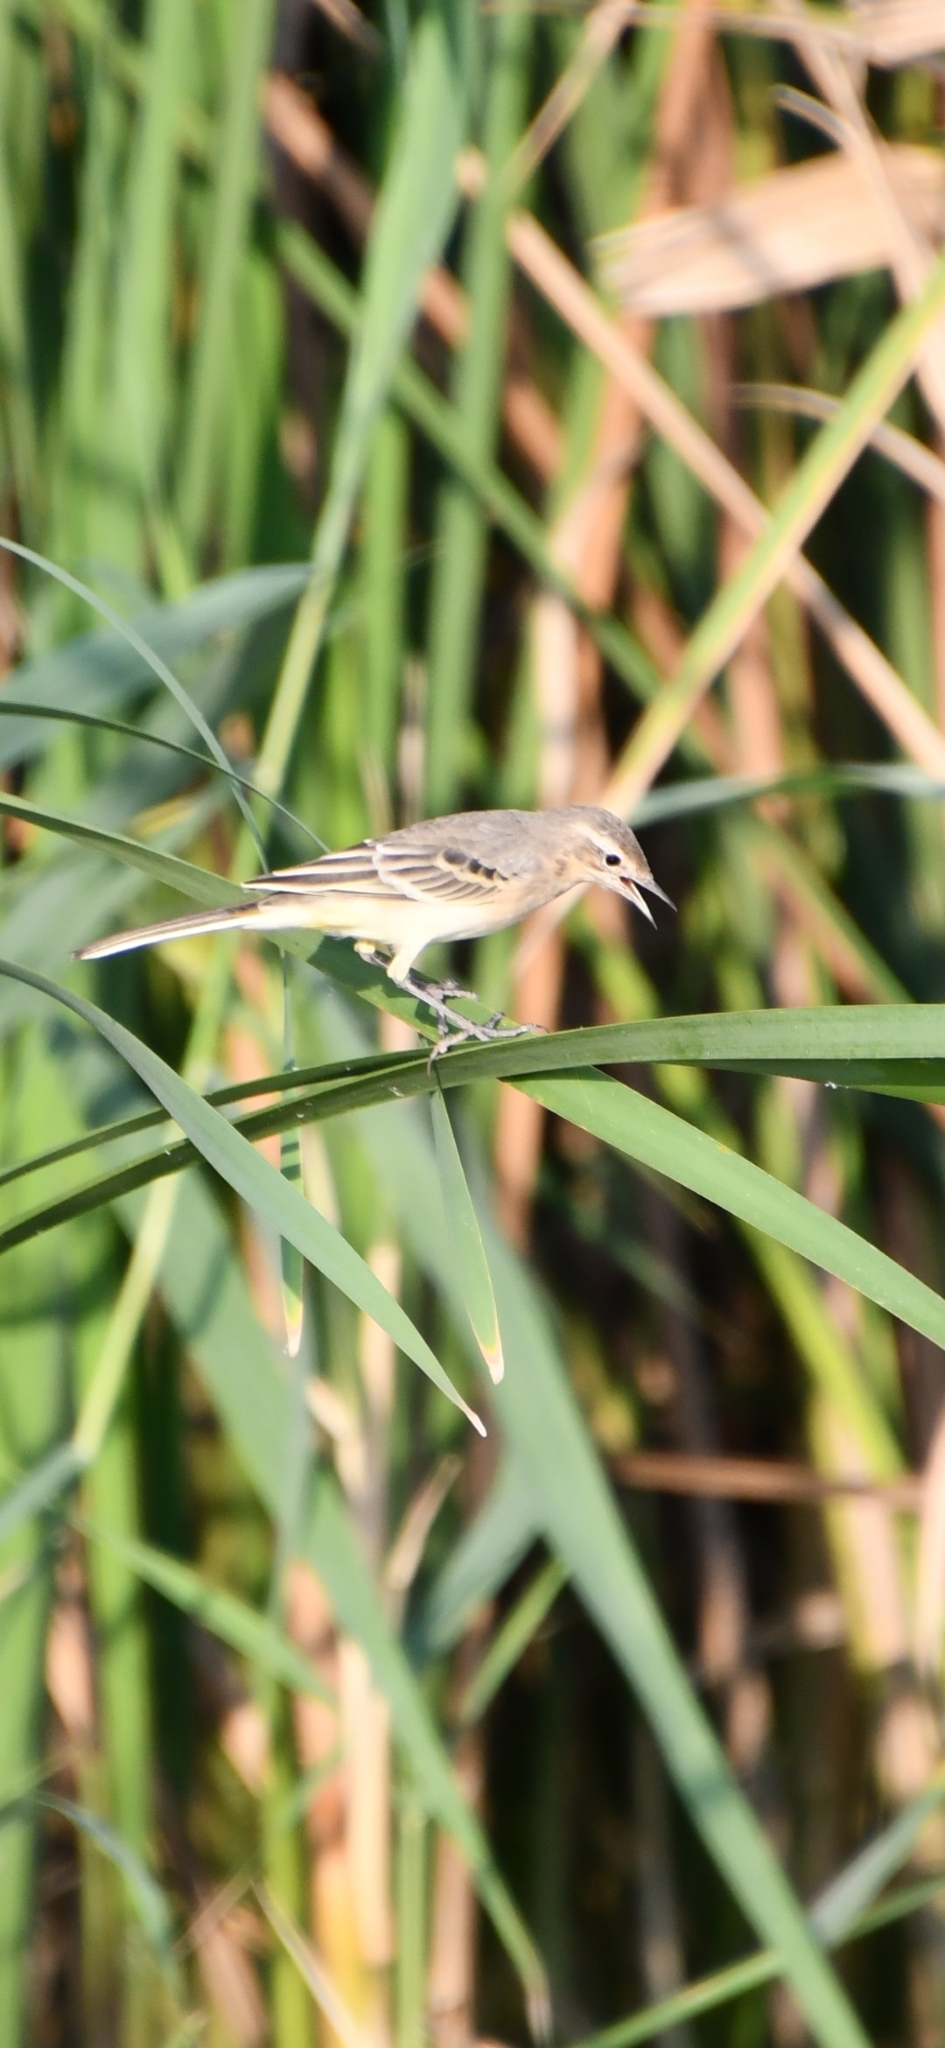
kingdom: Animalia
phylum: Chordata
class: Aves
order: Passeriformes
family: Motacillidae
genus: Motacilla
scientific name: Motacilla flava
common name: Western yellow wagtail
